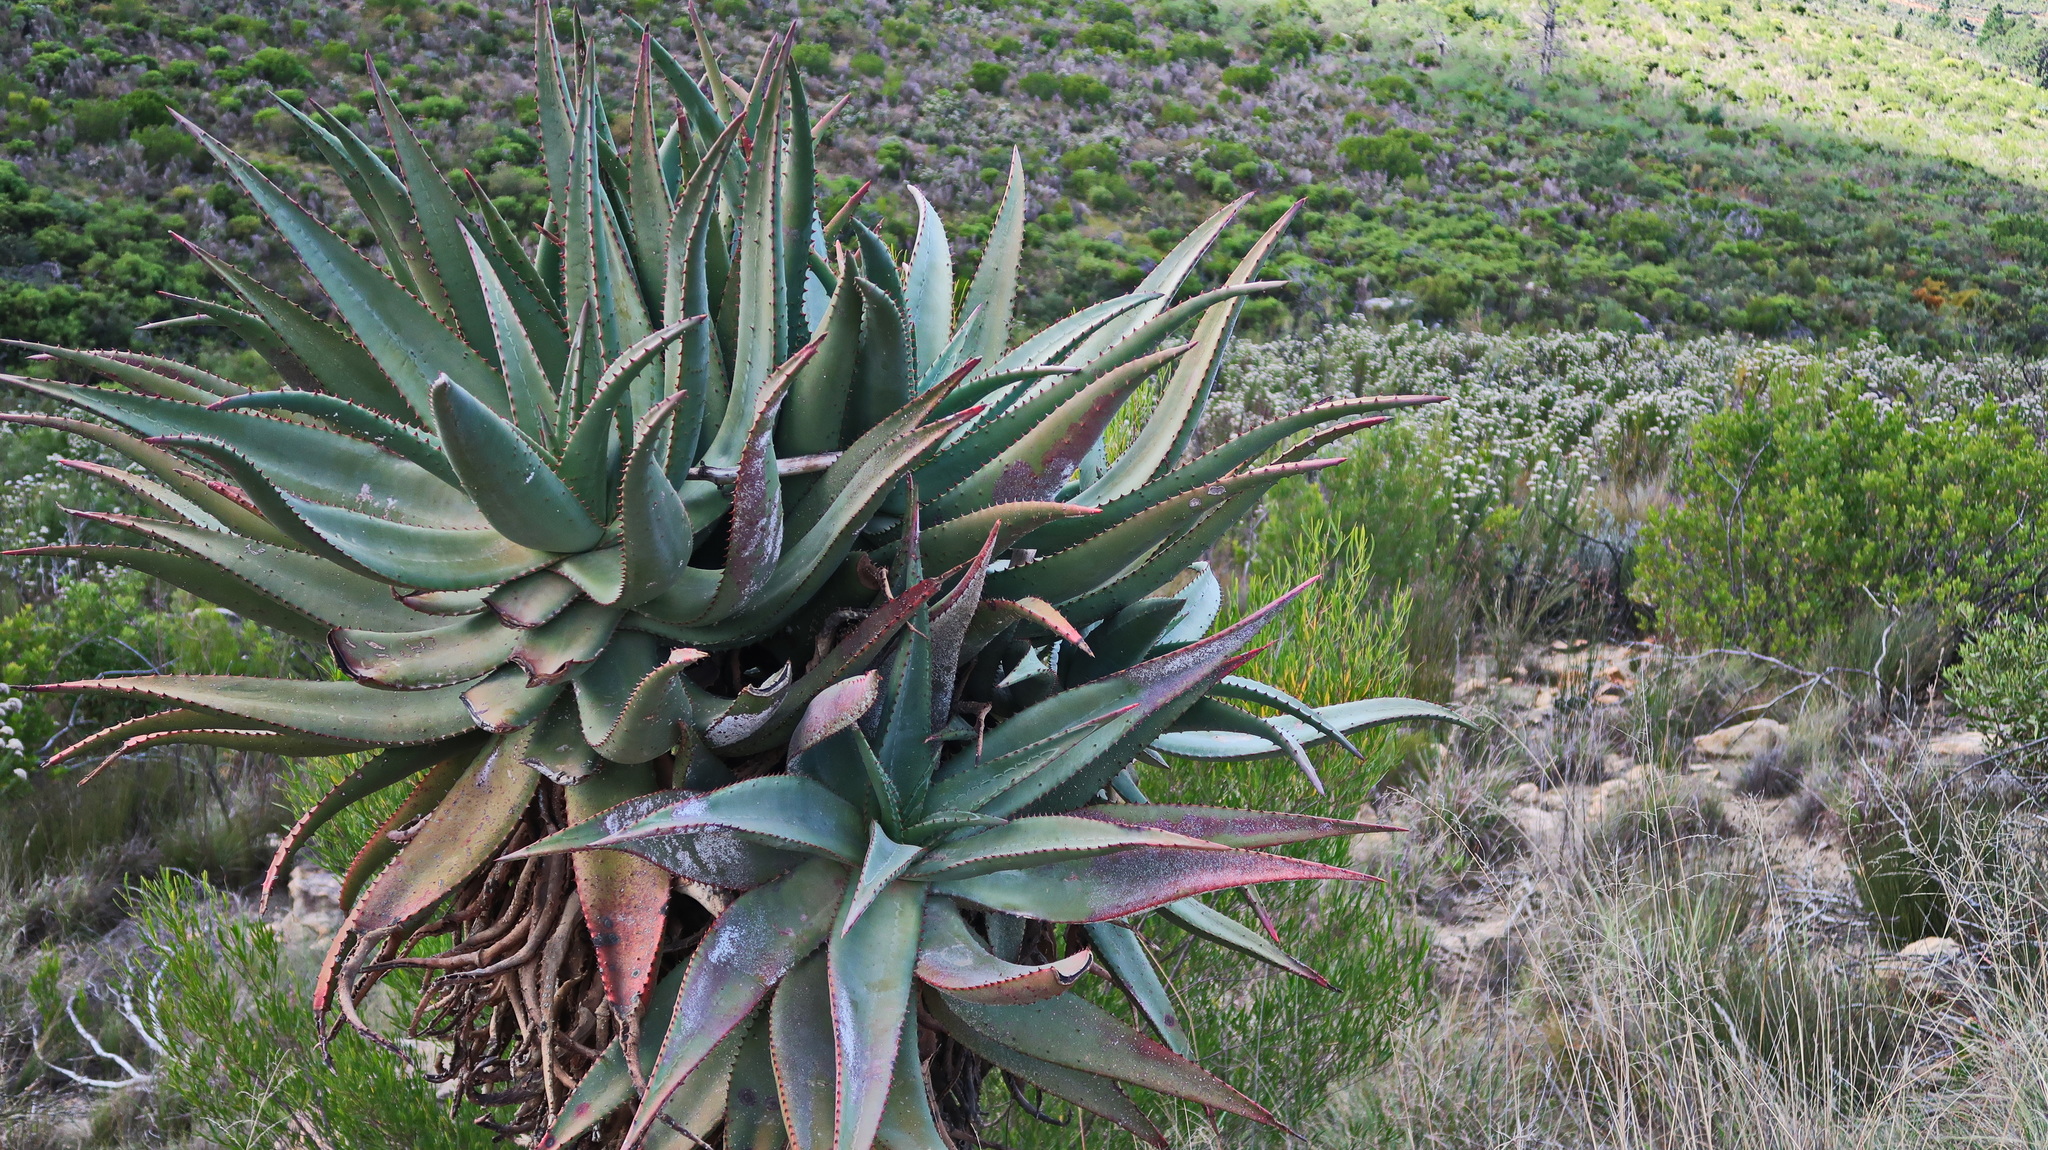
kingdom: Plantae
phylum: Tracheophyta
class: Liliopsida
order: Asparagales
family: Asphodelaceae
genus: Aloe
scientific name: Aloe ferox
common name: Bitter aloe
